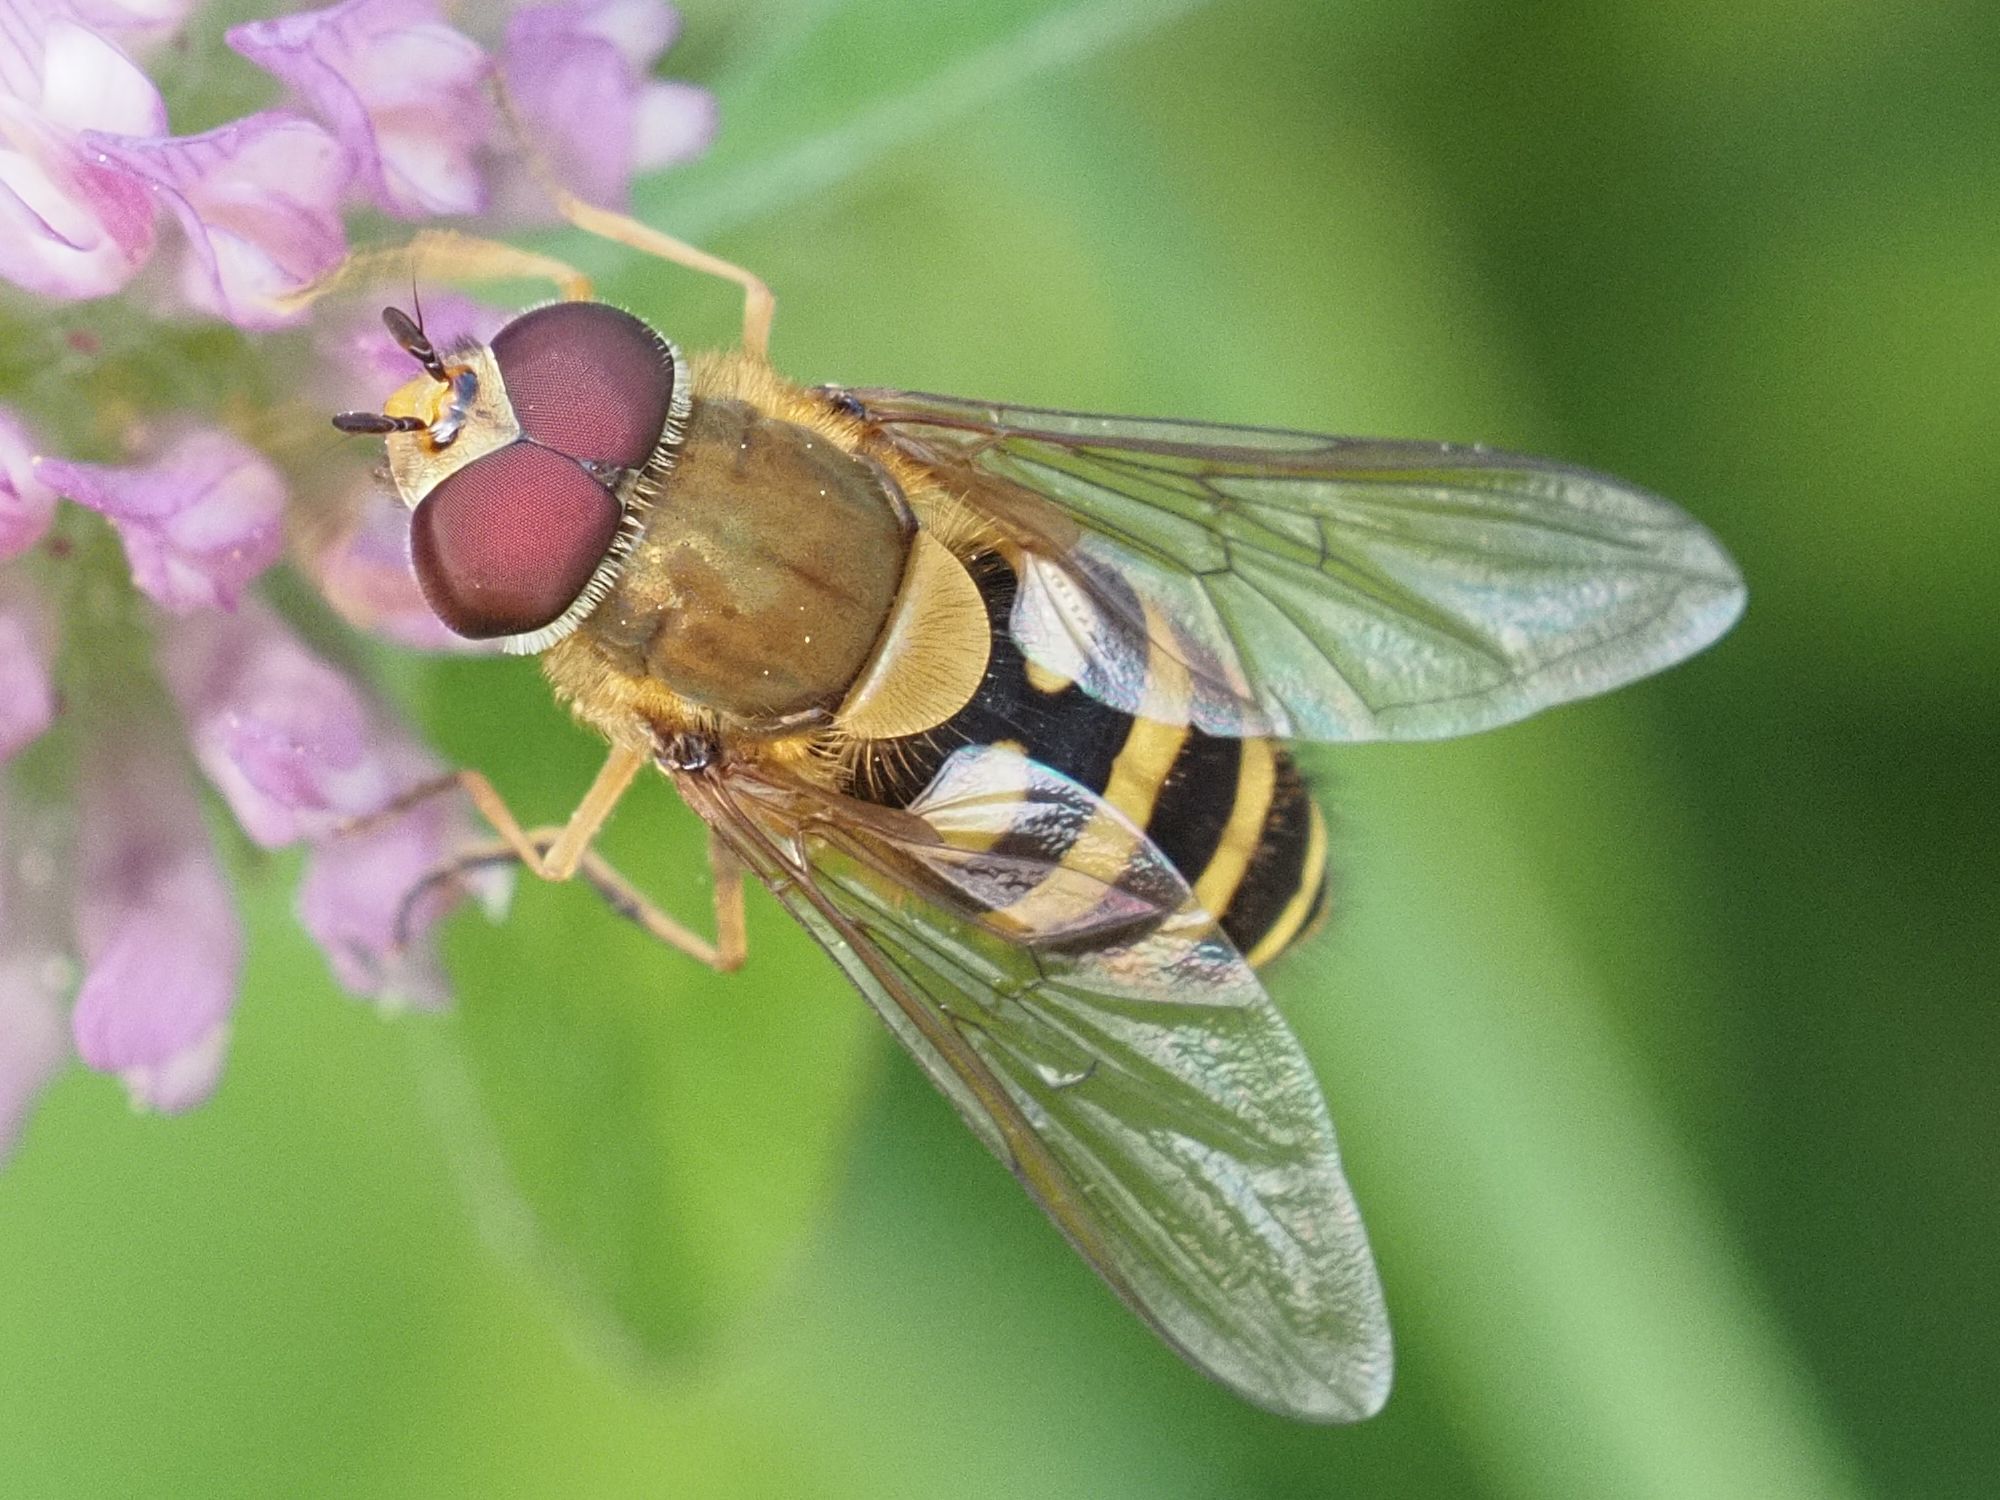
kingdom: Animalia
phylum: Arthropoda
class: Insecta
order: Diptera
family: Syrphidae
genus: Syrphus
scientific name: Syrphus torvus
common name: Hairy-eyed flower fly
